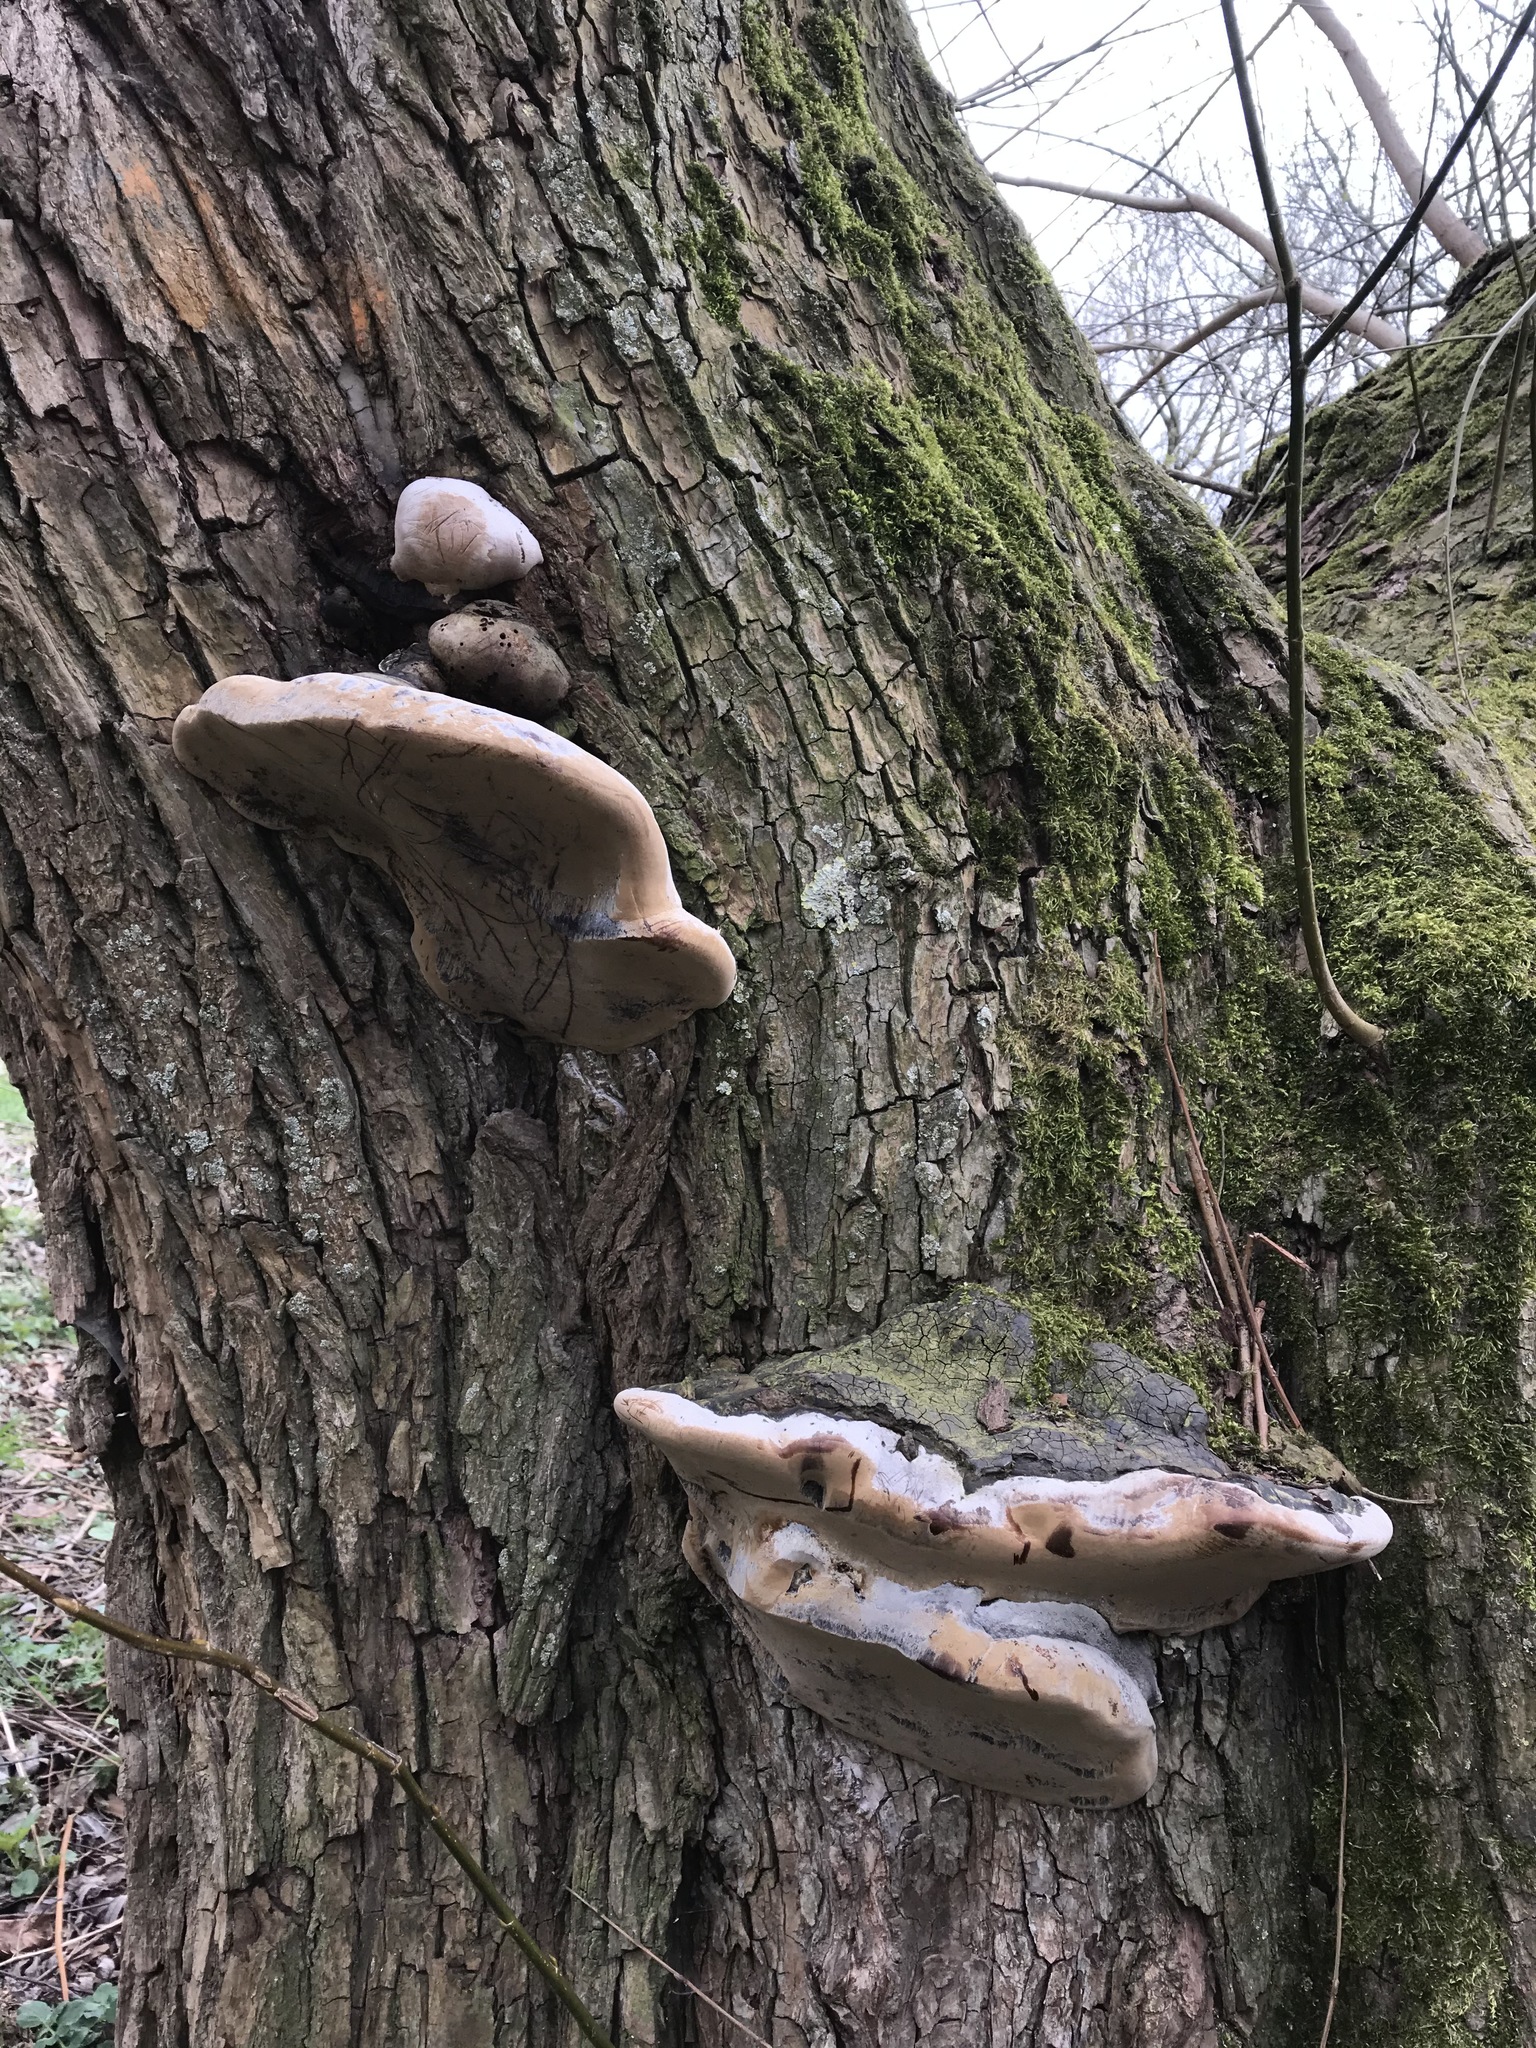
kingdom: Fungi
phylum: Basidiomycota
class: Agaricomycetes
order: Hymenochaetales
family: Hymenochaetaceae
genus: Phellinus
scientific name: Phellinus igniarius
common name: Willow bracket
